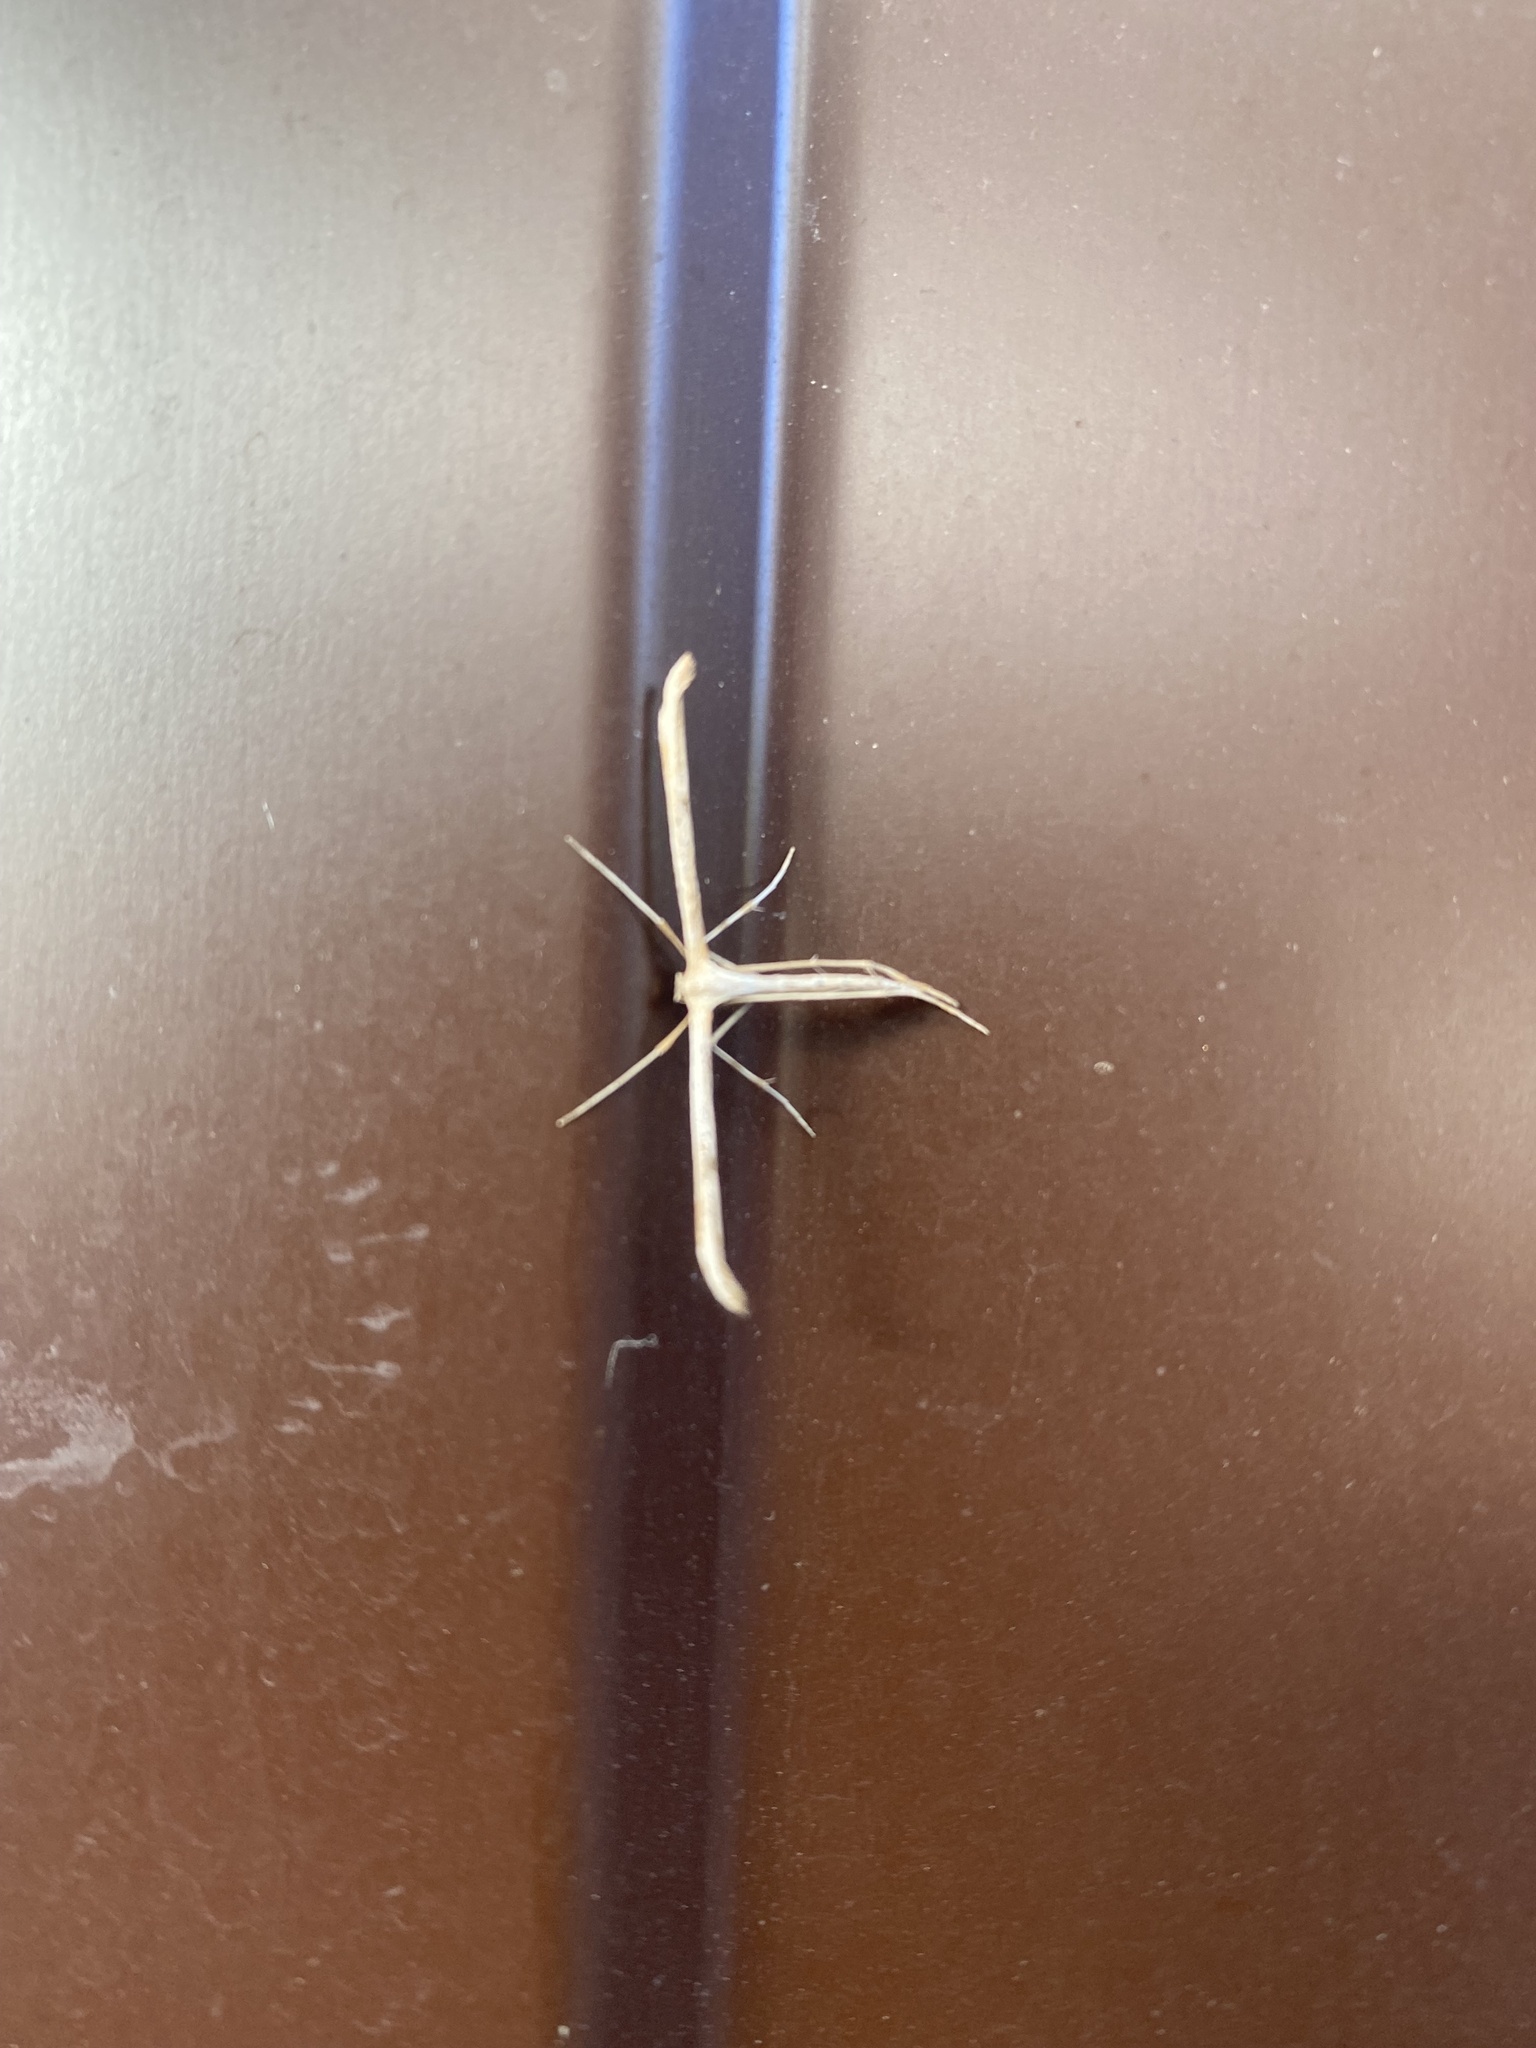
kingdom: Animalia
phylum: Arthropoda
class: Insecta
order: Lepidoptera
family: Pterophoridae
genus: Emmelina
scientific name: Emmelina monodactyla
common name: Common plume
